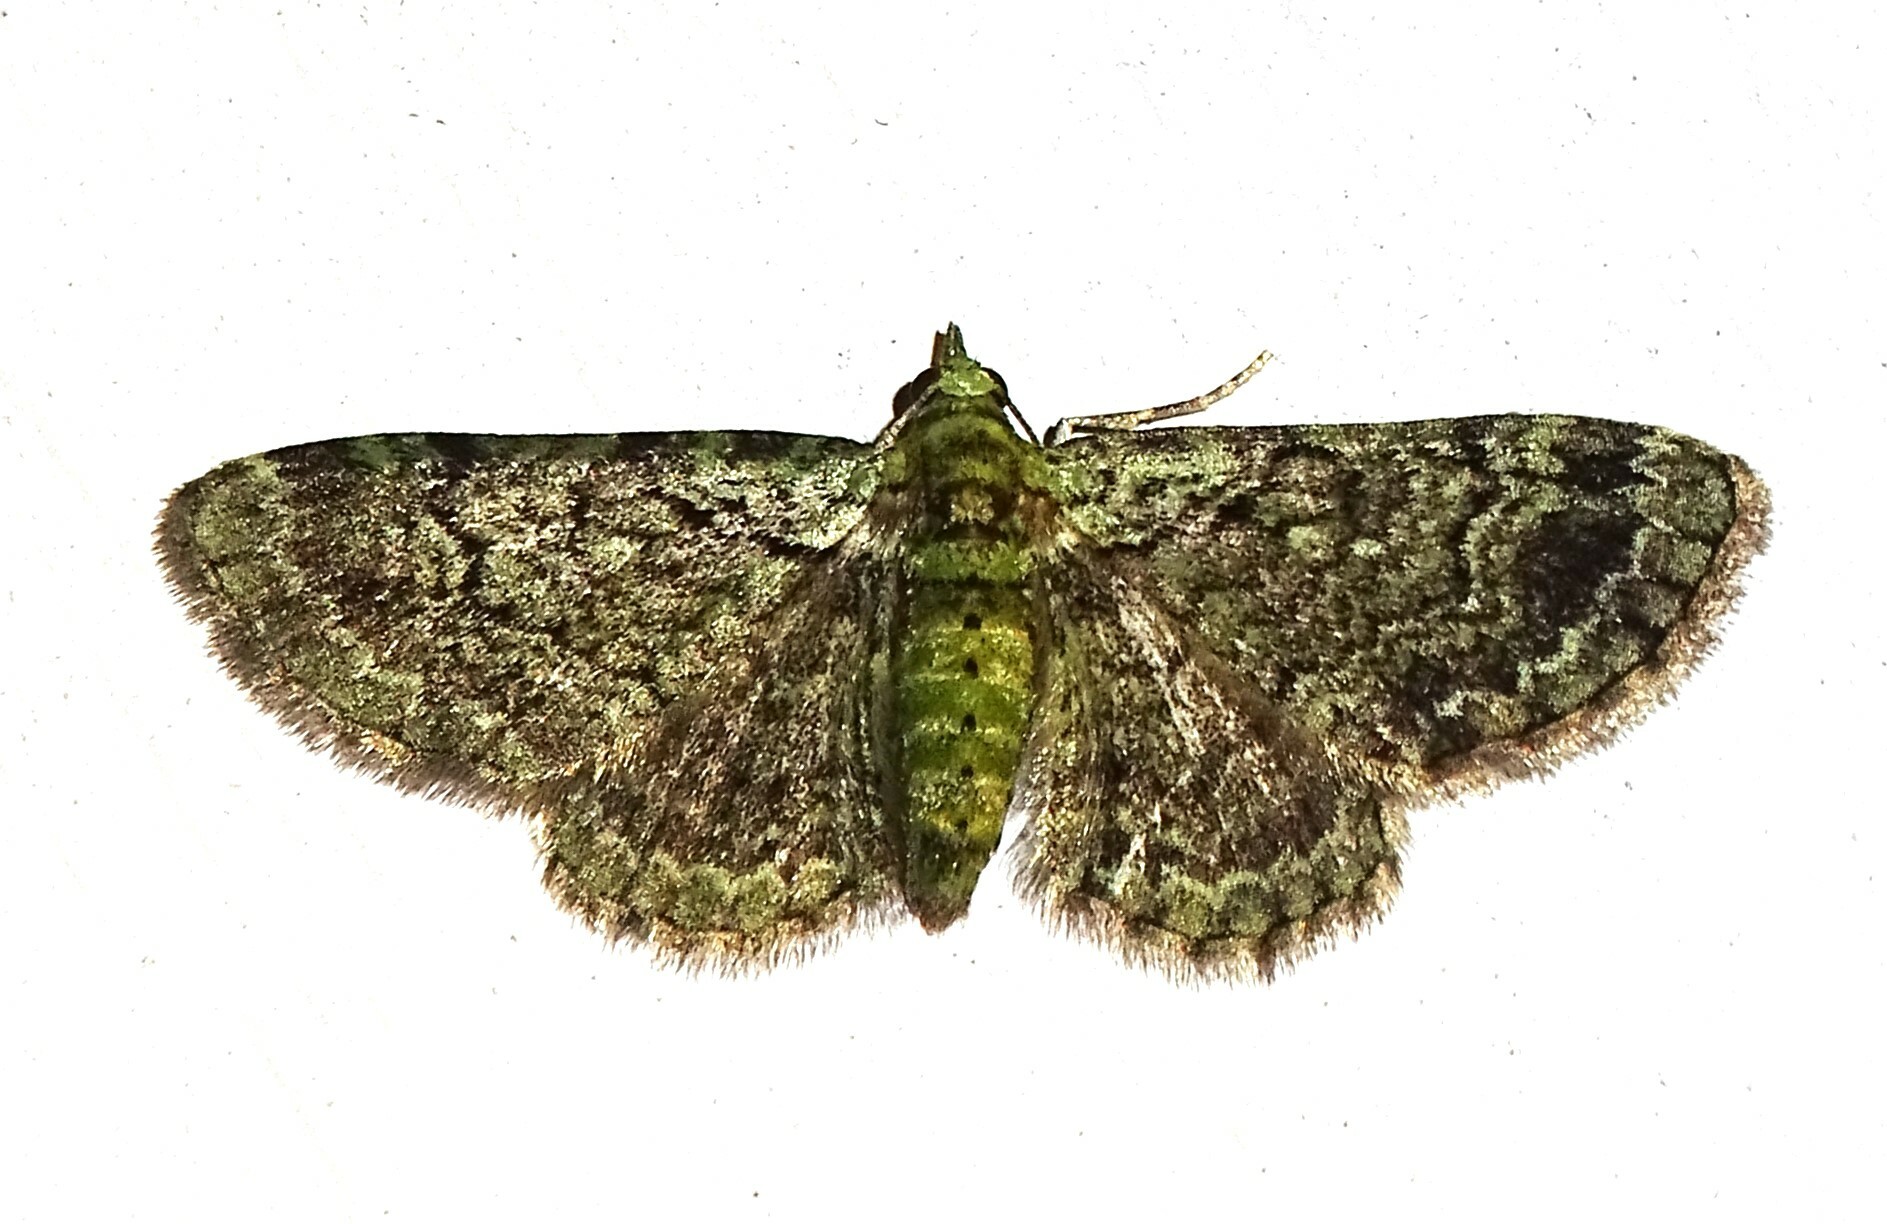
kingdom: Animalia
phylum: Arthropoda
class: Insecta
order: Lepidoptera
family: Geometridae
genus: Pasiphila
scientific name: Pasiphila rectangulata
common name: Green pug
